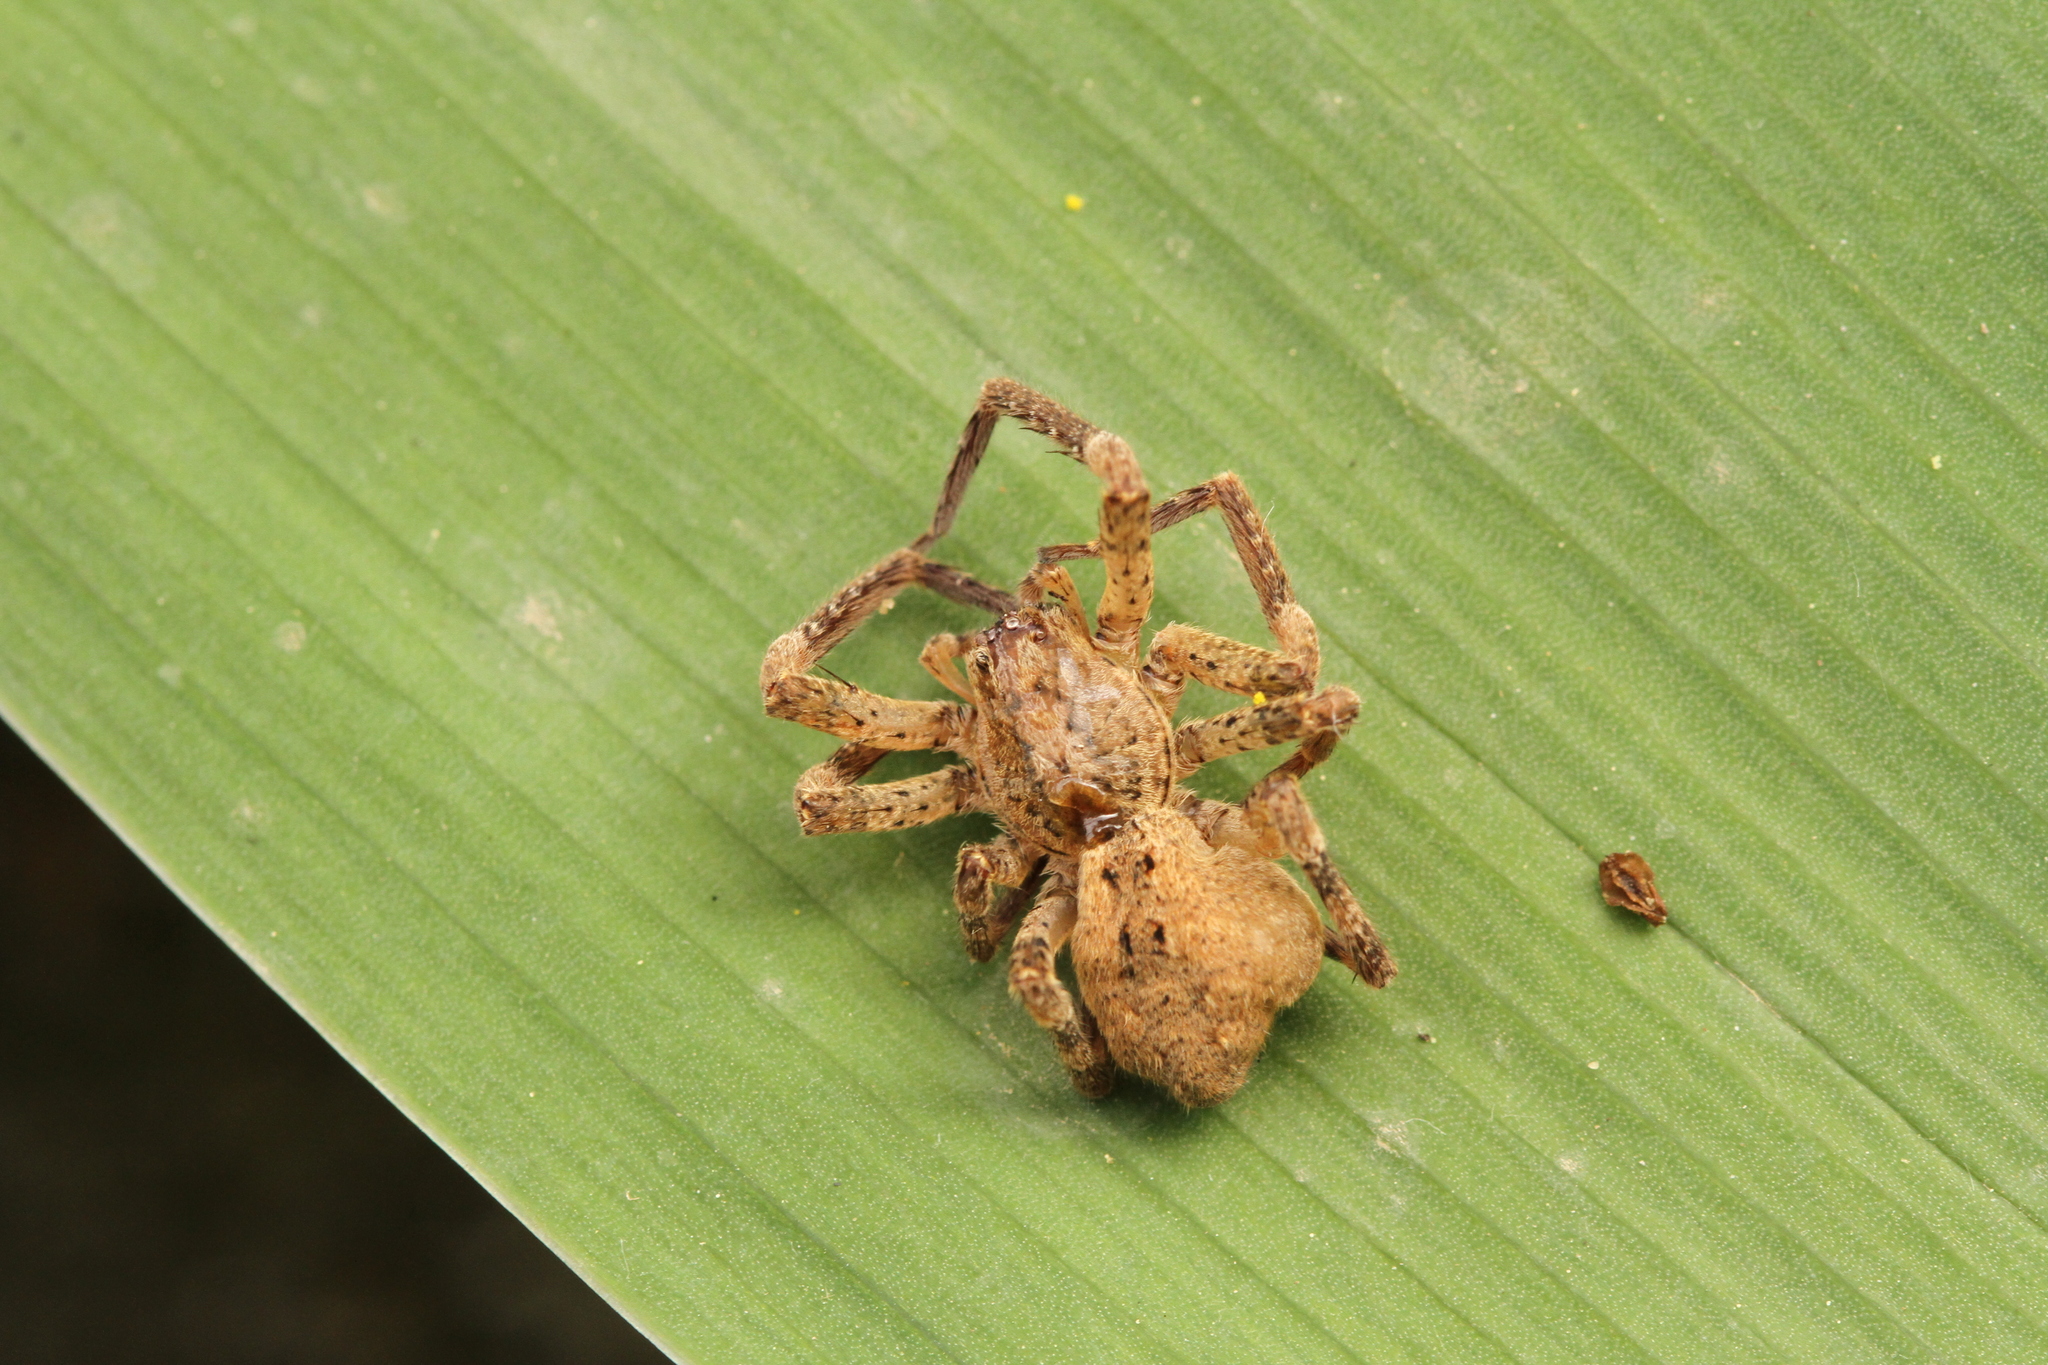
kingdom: Animalia
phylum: Arthropoda
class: Arachnida
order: Araneae
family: Zoropsidae
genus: Zoropsis
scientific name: Zoropsis spinimana
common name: Zoropsid spider
